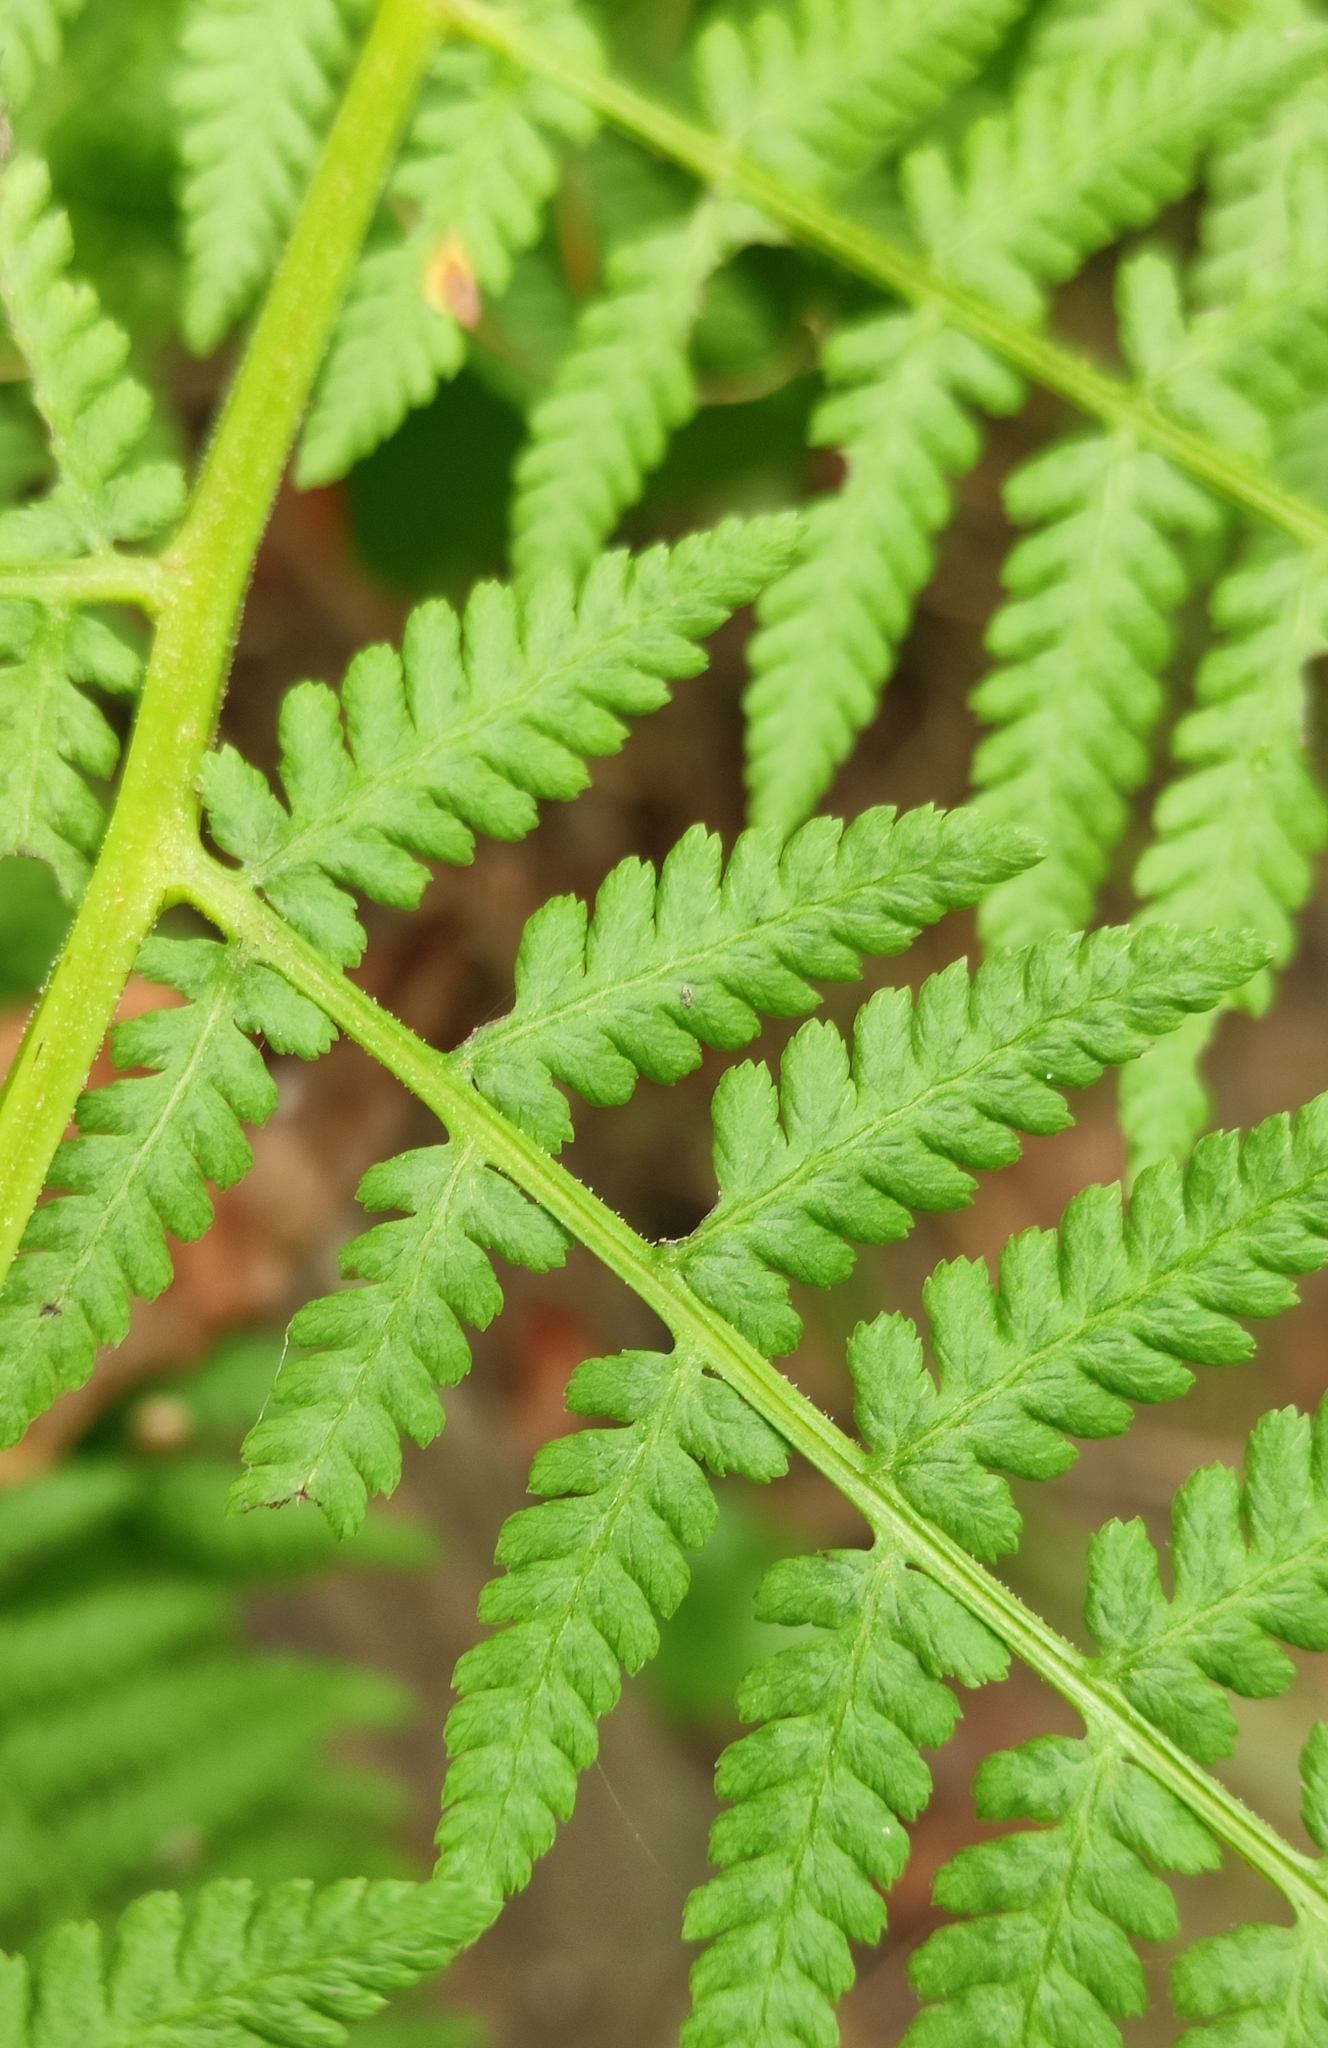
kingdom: Plantae
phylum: Tracheophyta
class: Polypodiopsida
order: Polypodiales
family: Athyriaceae
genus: Athyrium
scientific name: Athyrium filix-femina
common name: Lady fern
